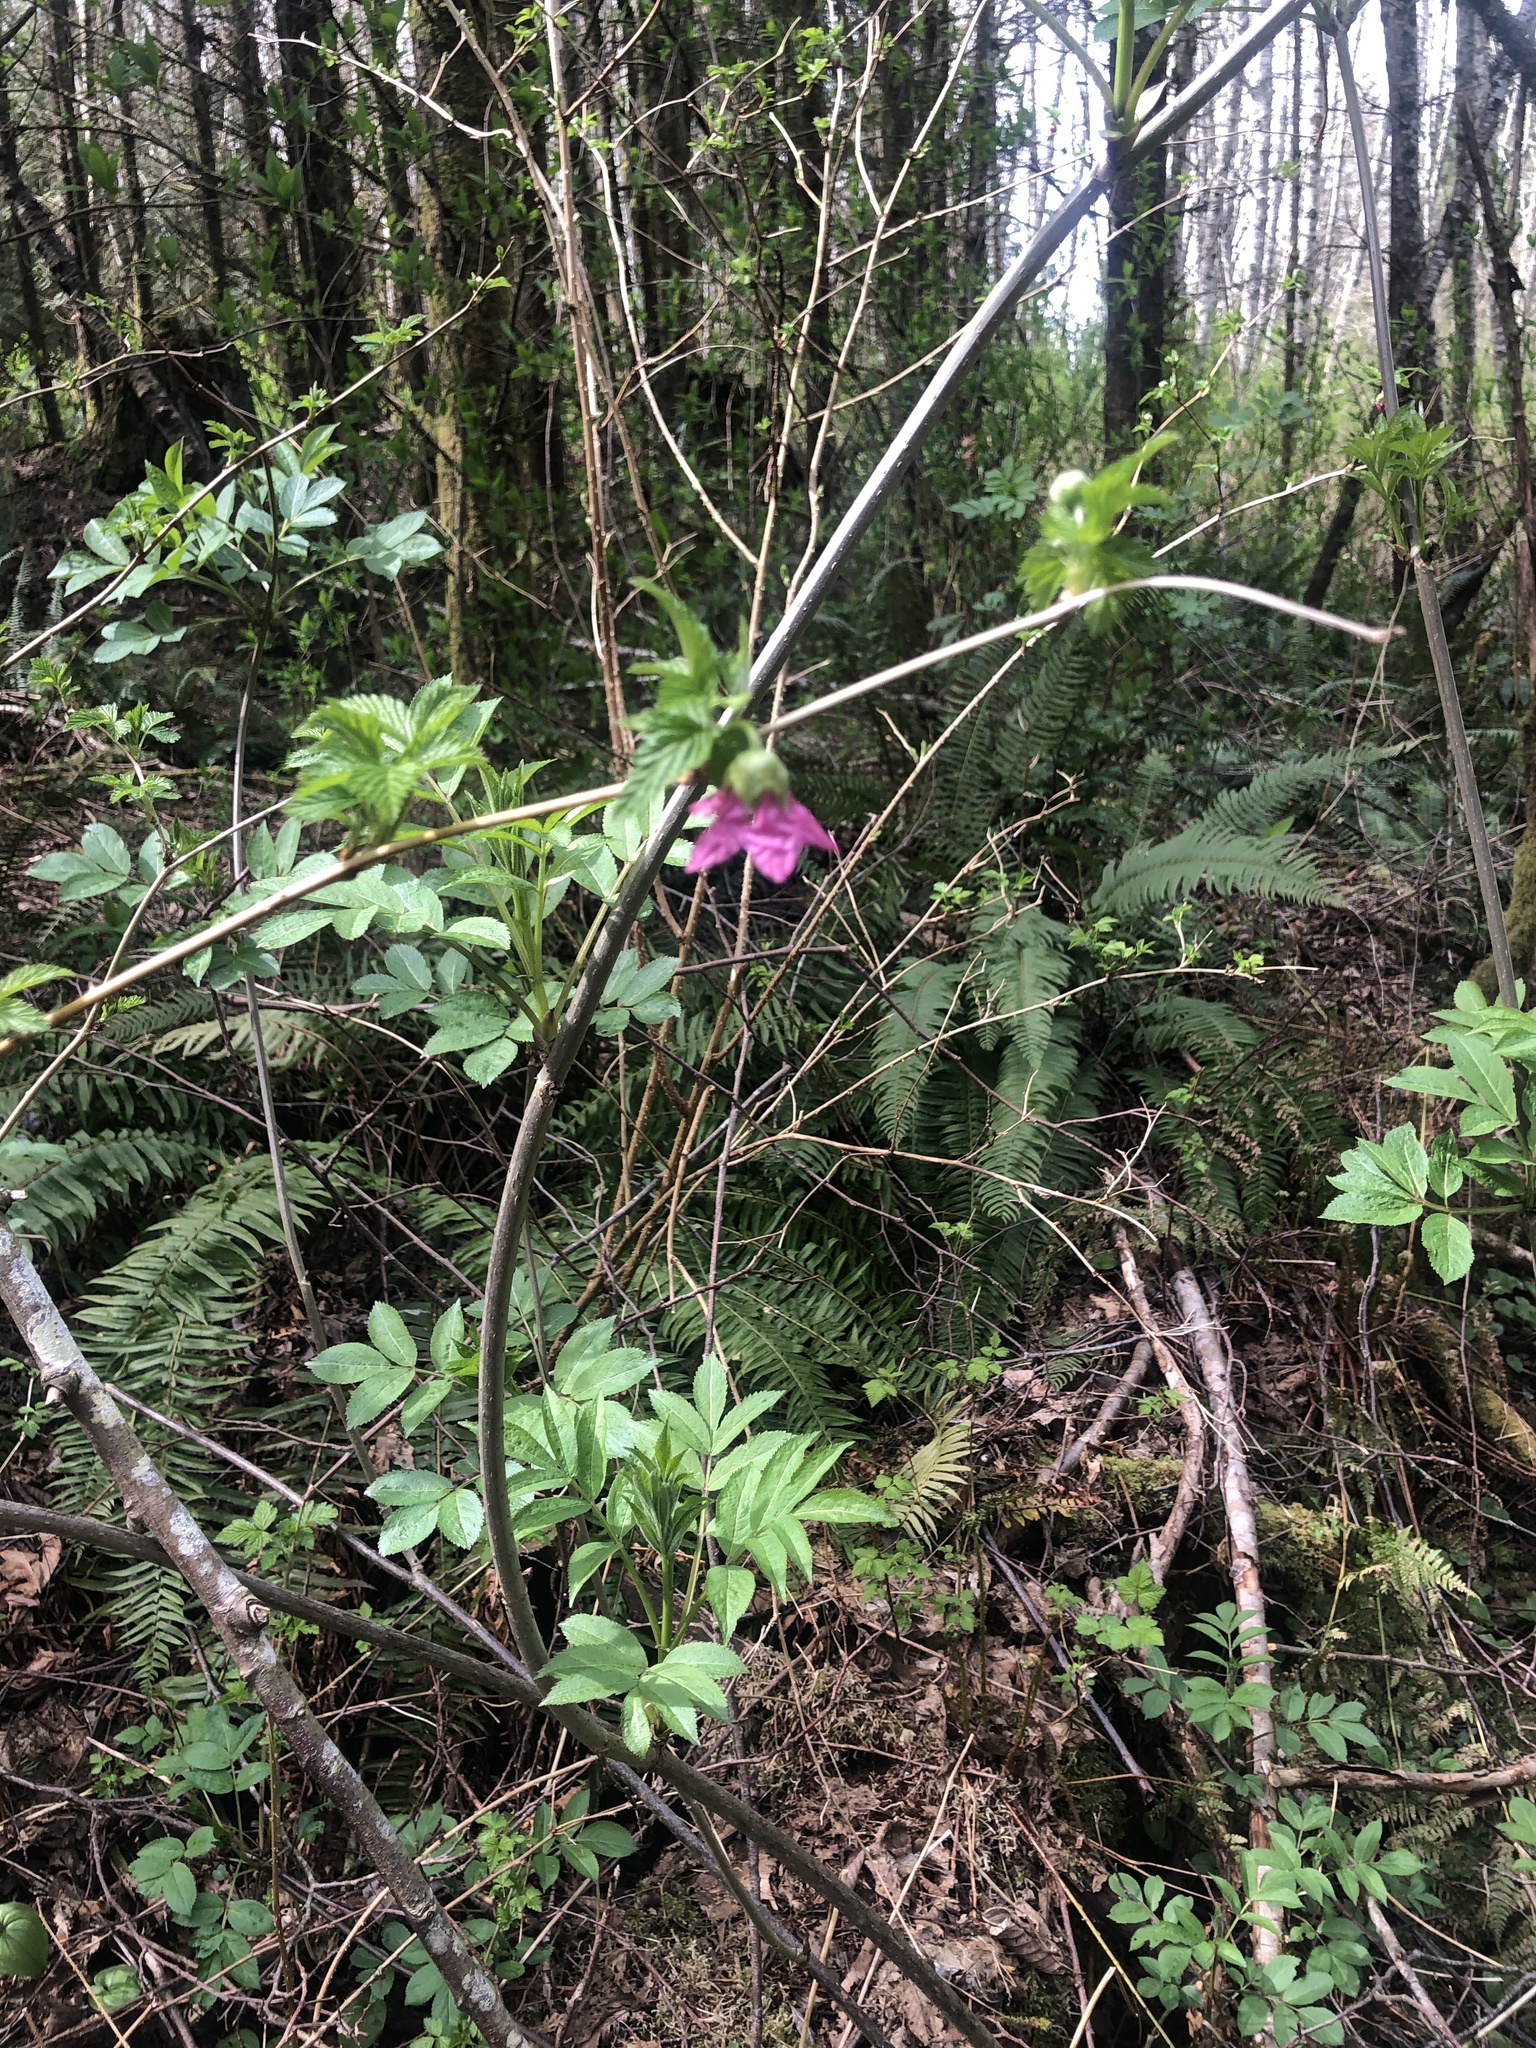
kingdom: Plantae
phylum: Tracheophyta
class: Magnoliopsida
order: Rosales
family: Rosaceae
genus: Rubus
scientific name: Rubus spectabilis
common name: Salmonberry
